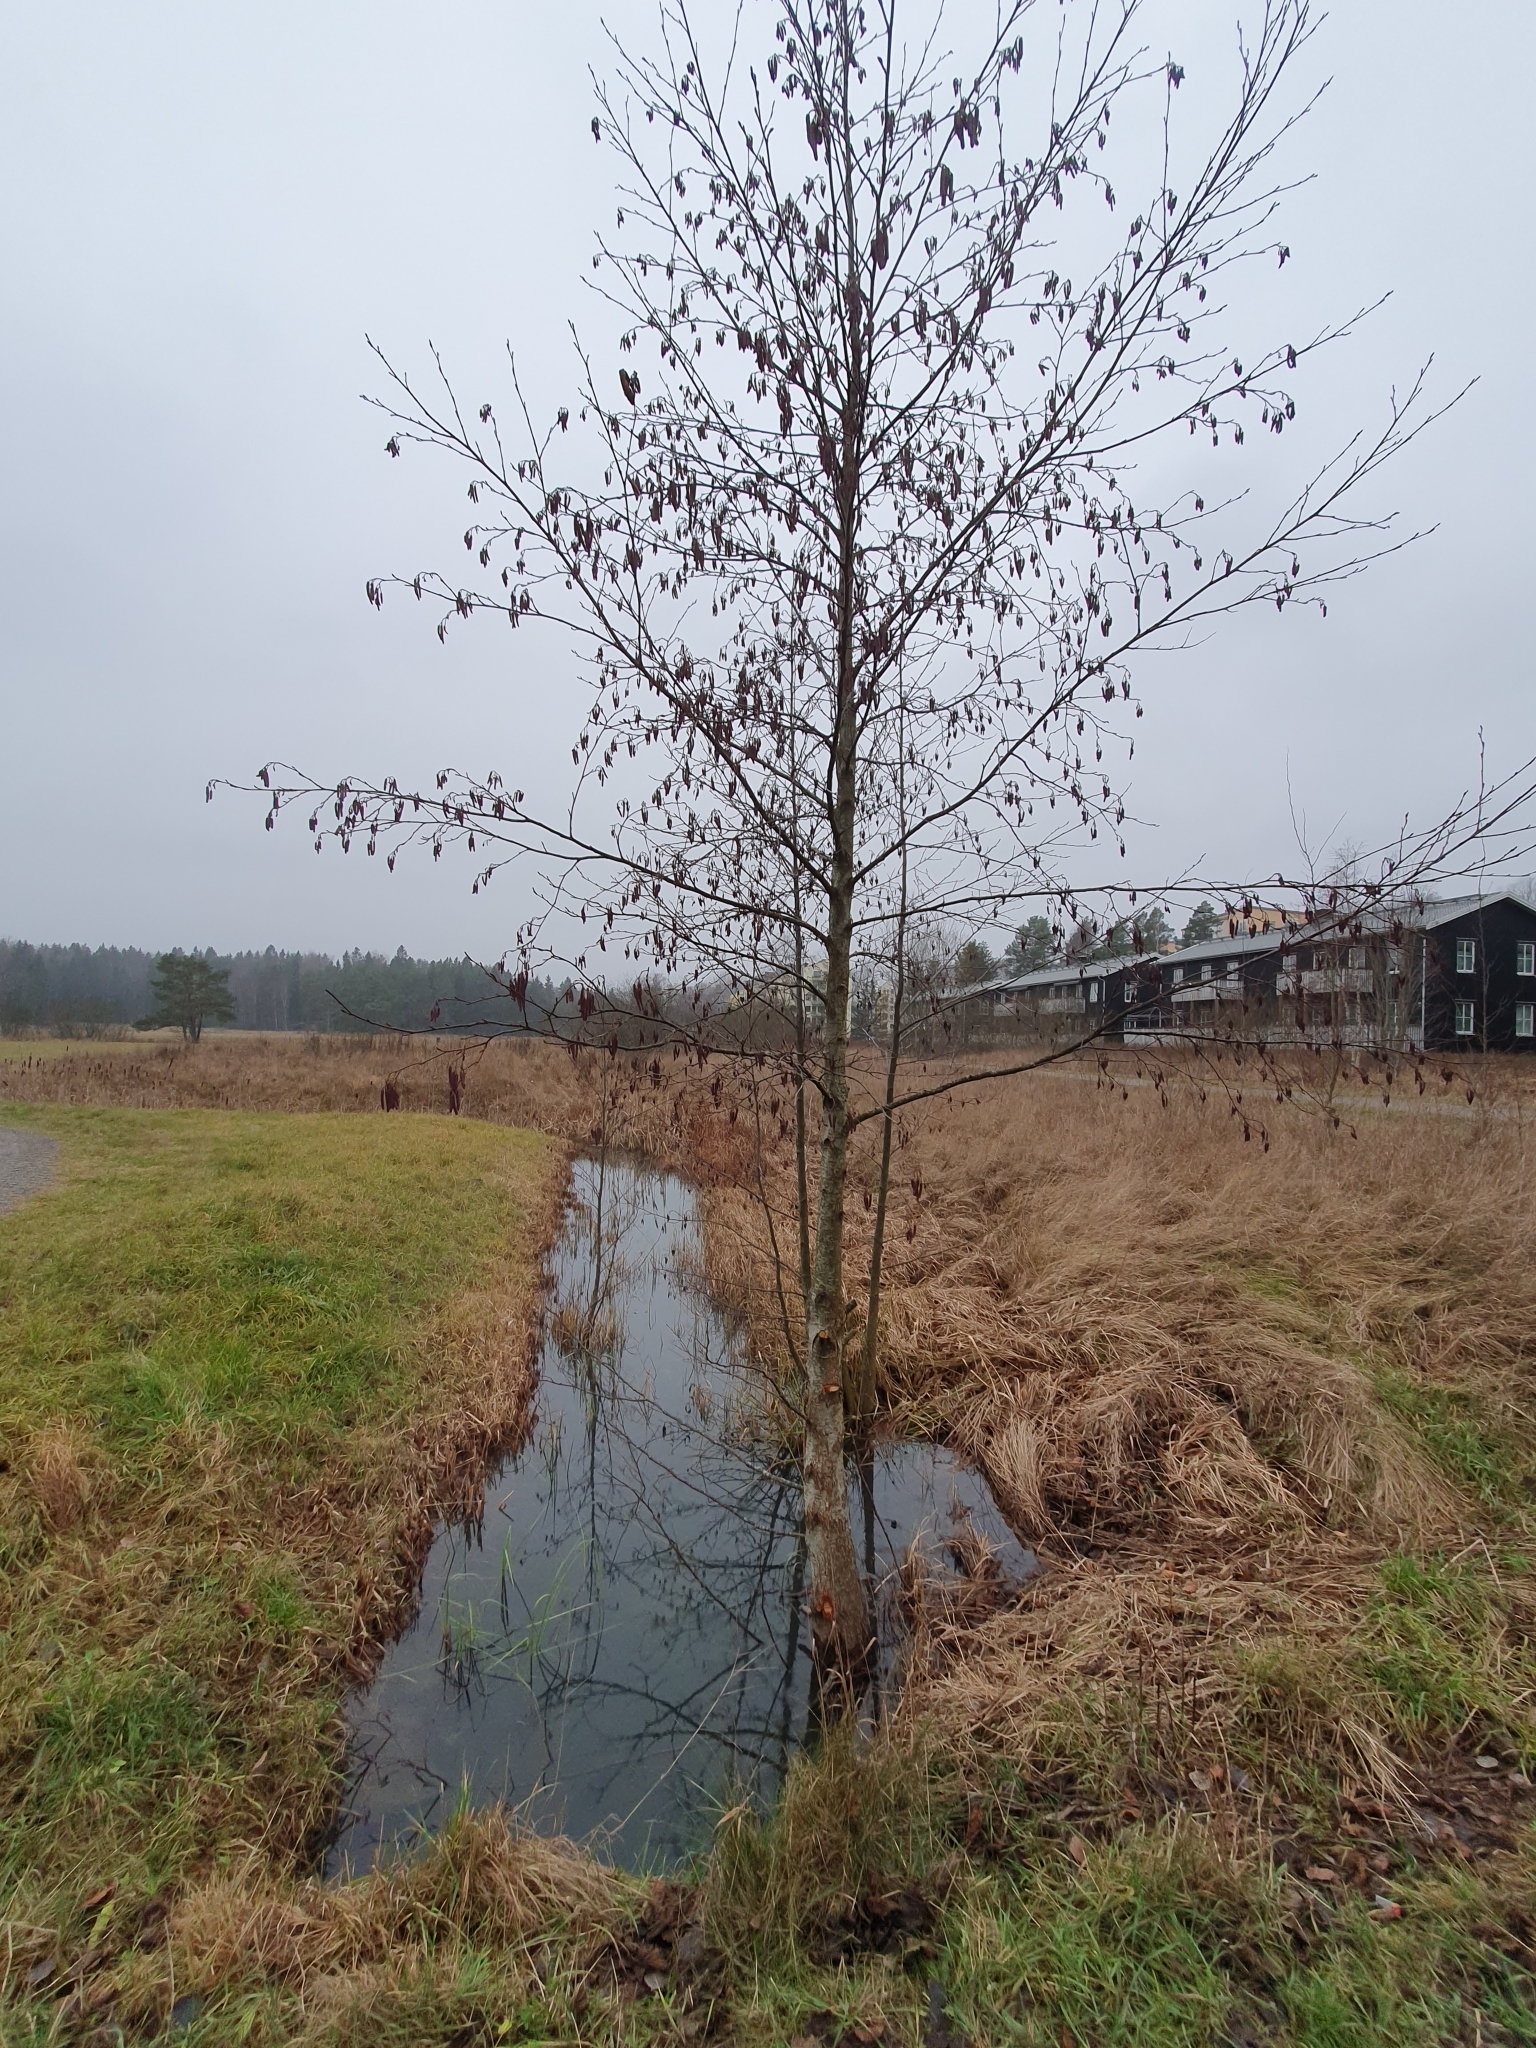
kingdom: Plantae
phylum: Tracheophyta
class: Magnoliopsida
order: Fagales
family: Betulaceae
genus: Alnus
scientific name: Alnus glutinosa
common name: Black alder
